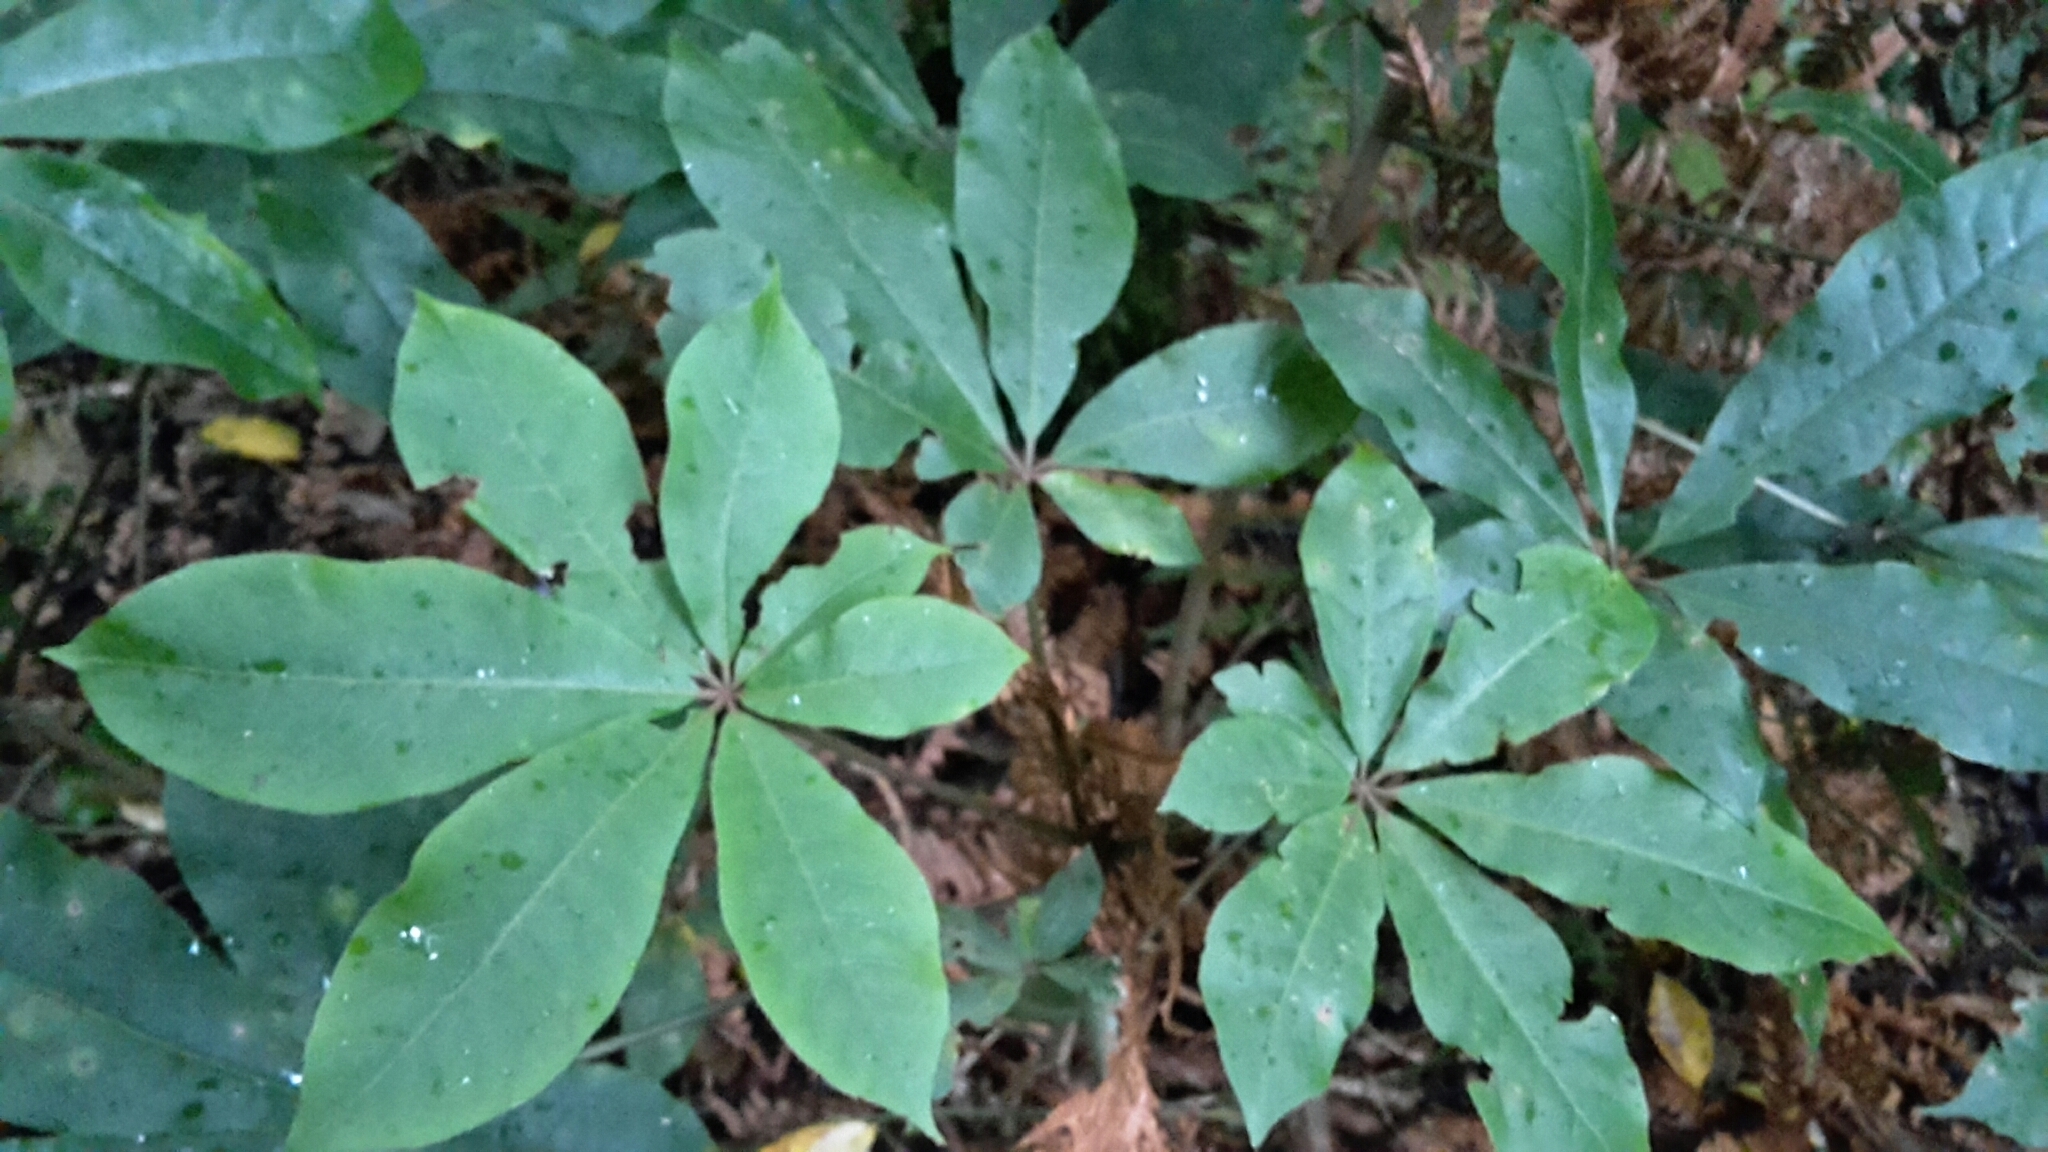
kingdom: Plantae
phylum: Tracheophyta
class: Magnoliopsida
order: Apiales
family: Araliaceae
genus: Schefflera
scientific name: Schefflera digitata
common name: Pate
